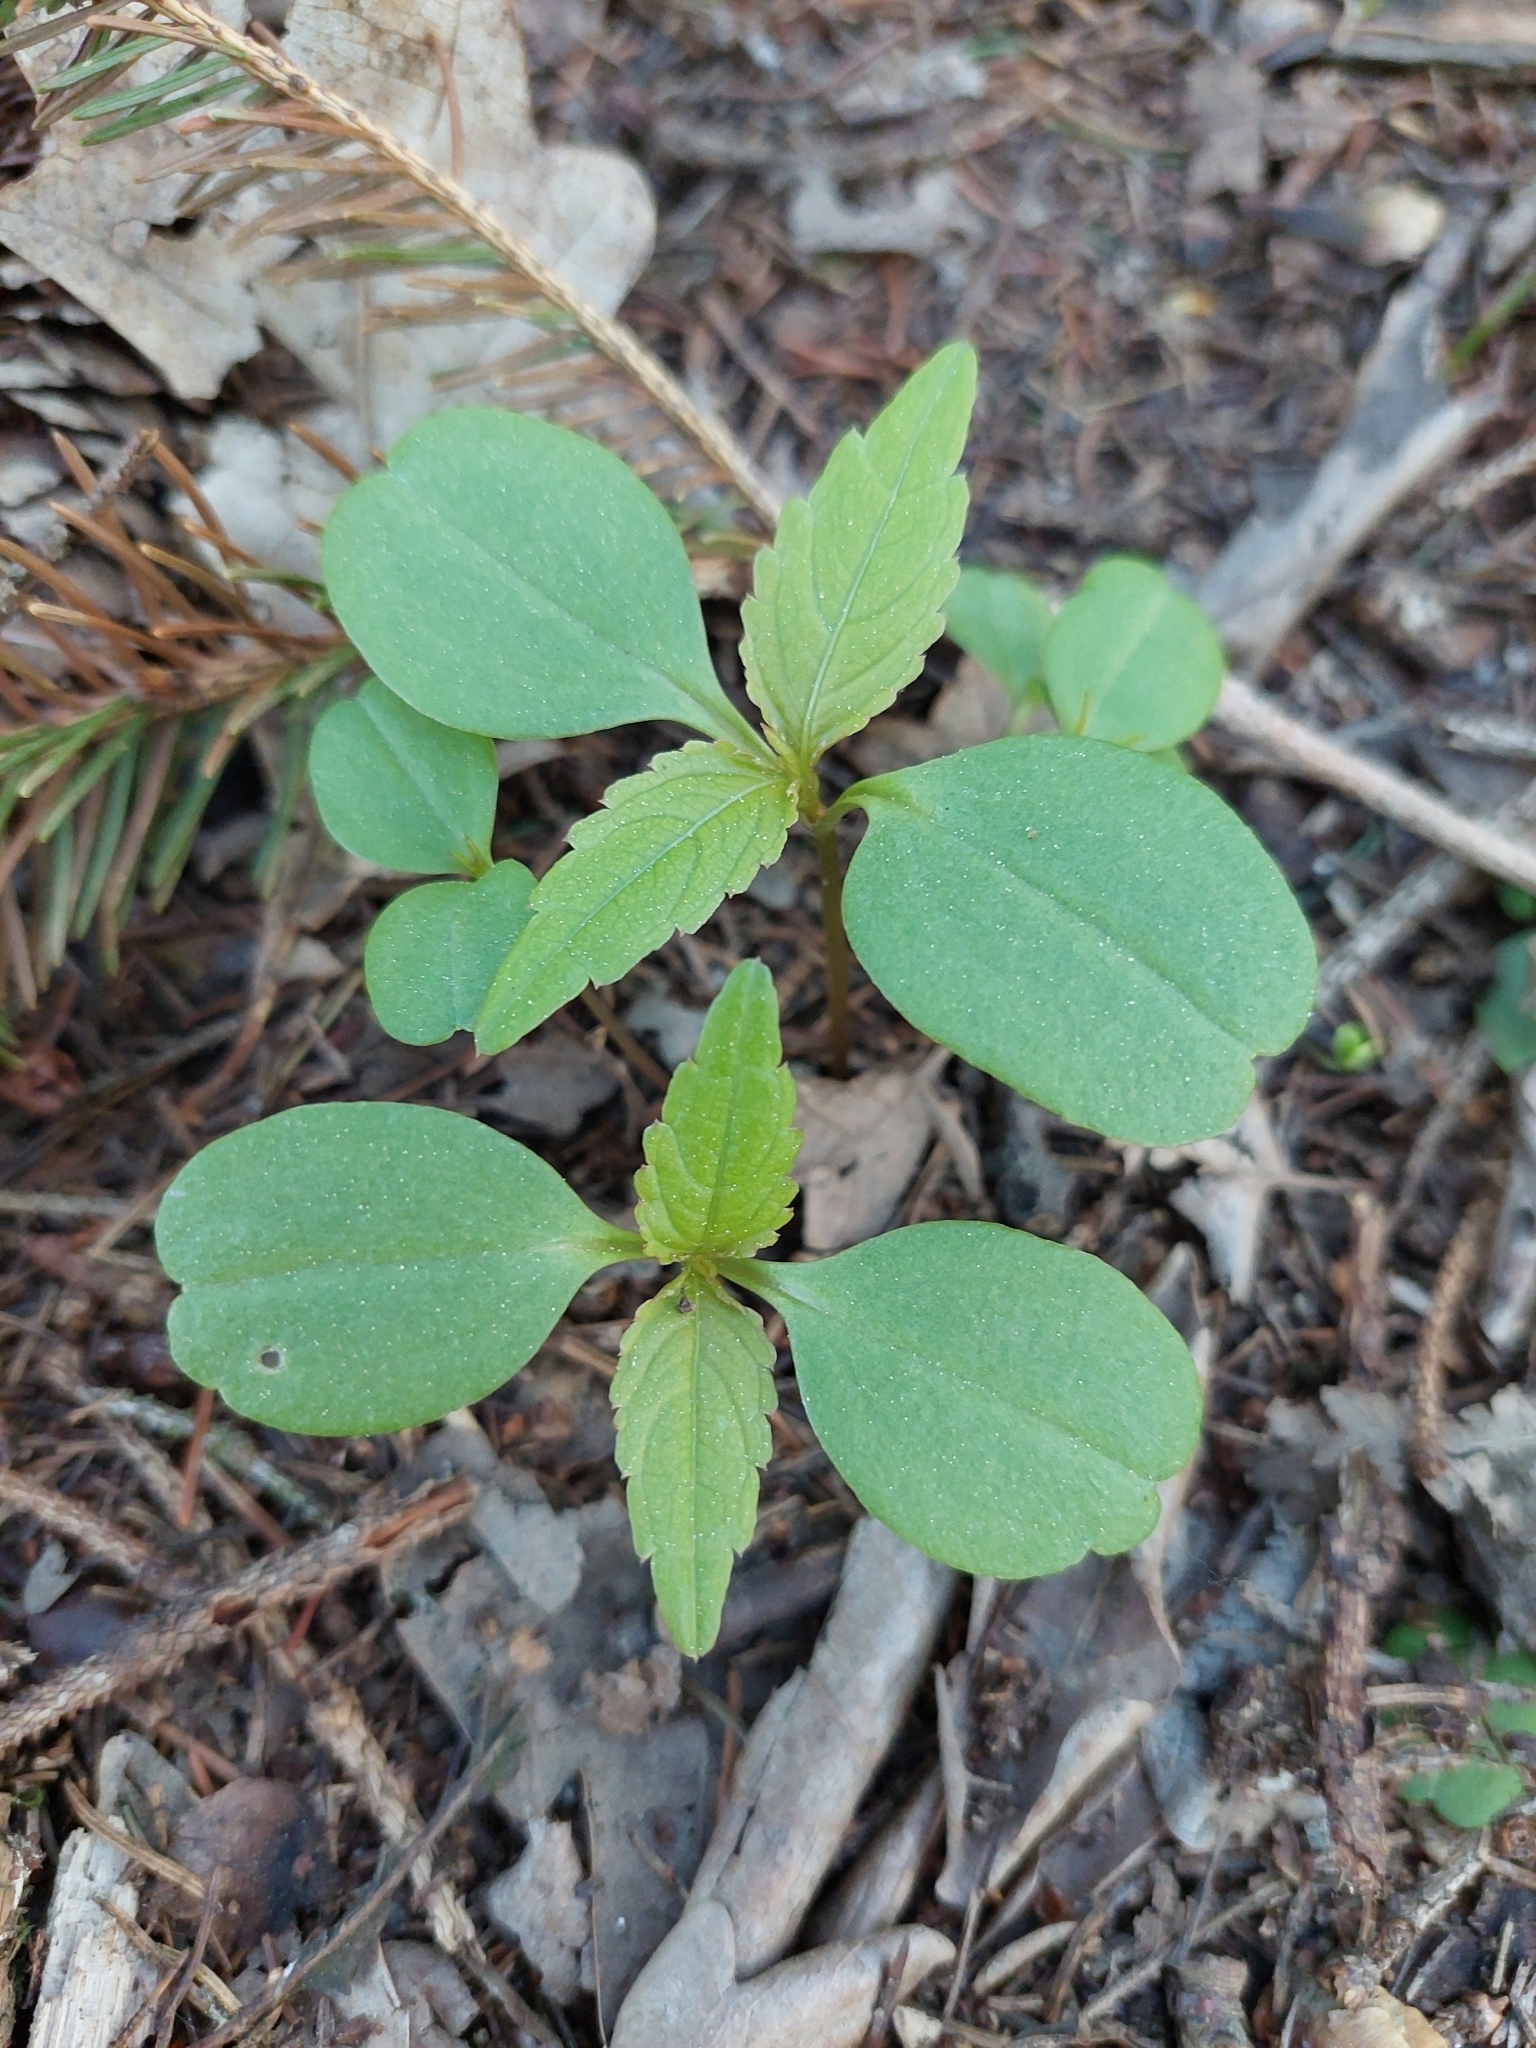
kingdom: Plantae
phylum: Tracheophyta
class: Magnoliopsida
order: Ericales
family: Balsaminaceae
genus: Impatiens
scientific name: Impatiens parviflora
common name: Small balsam
